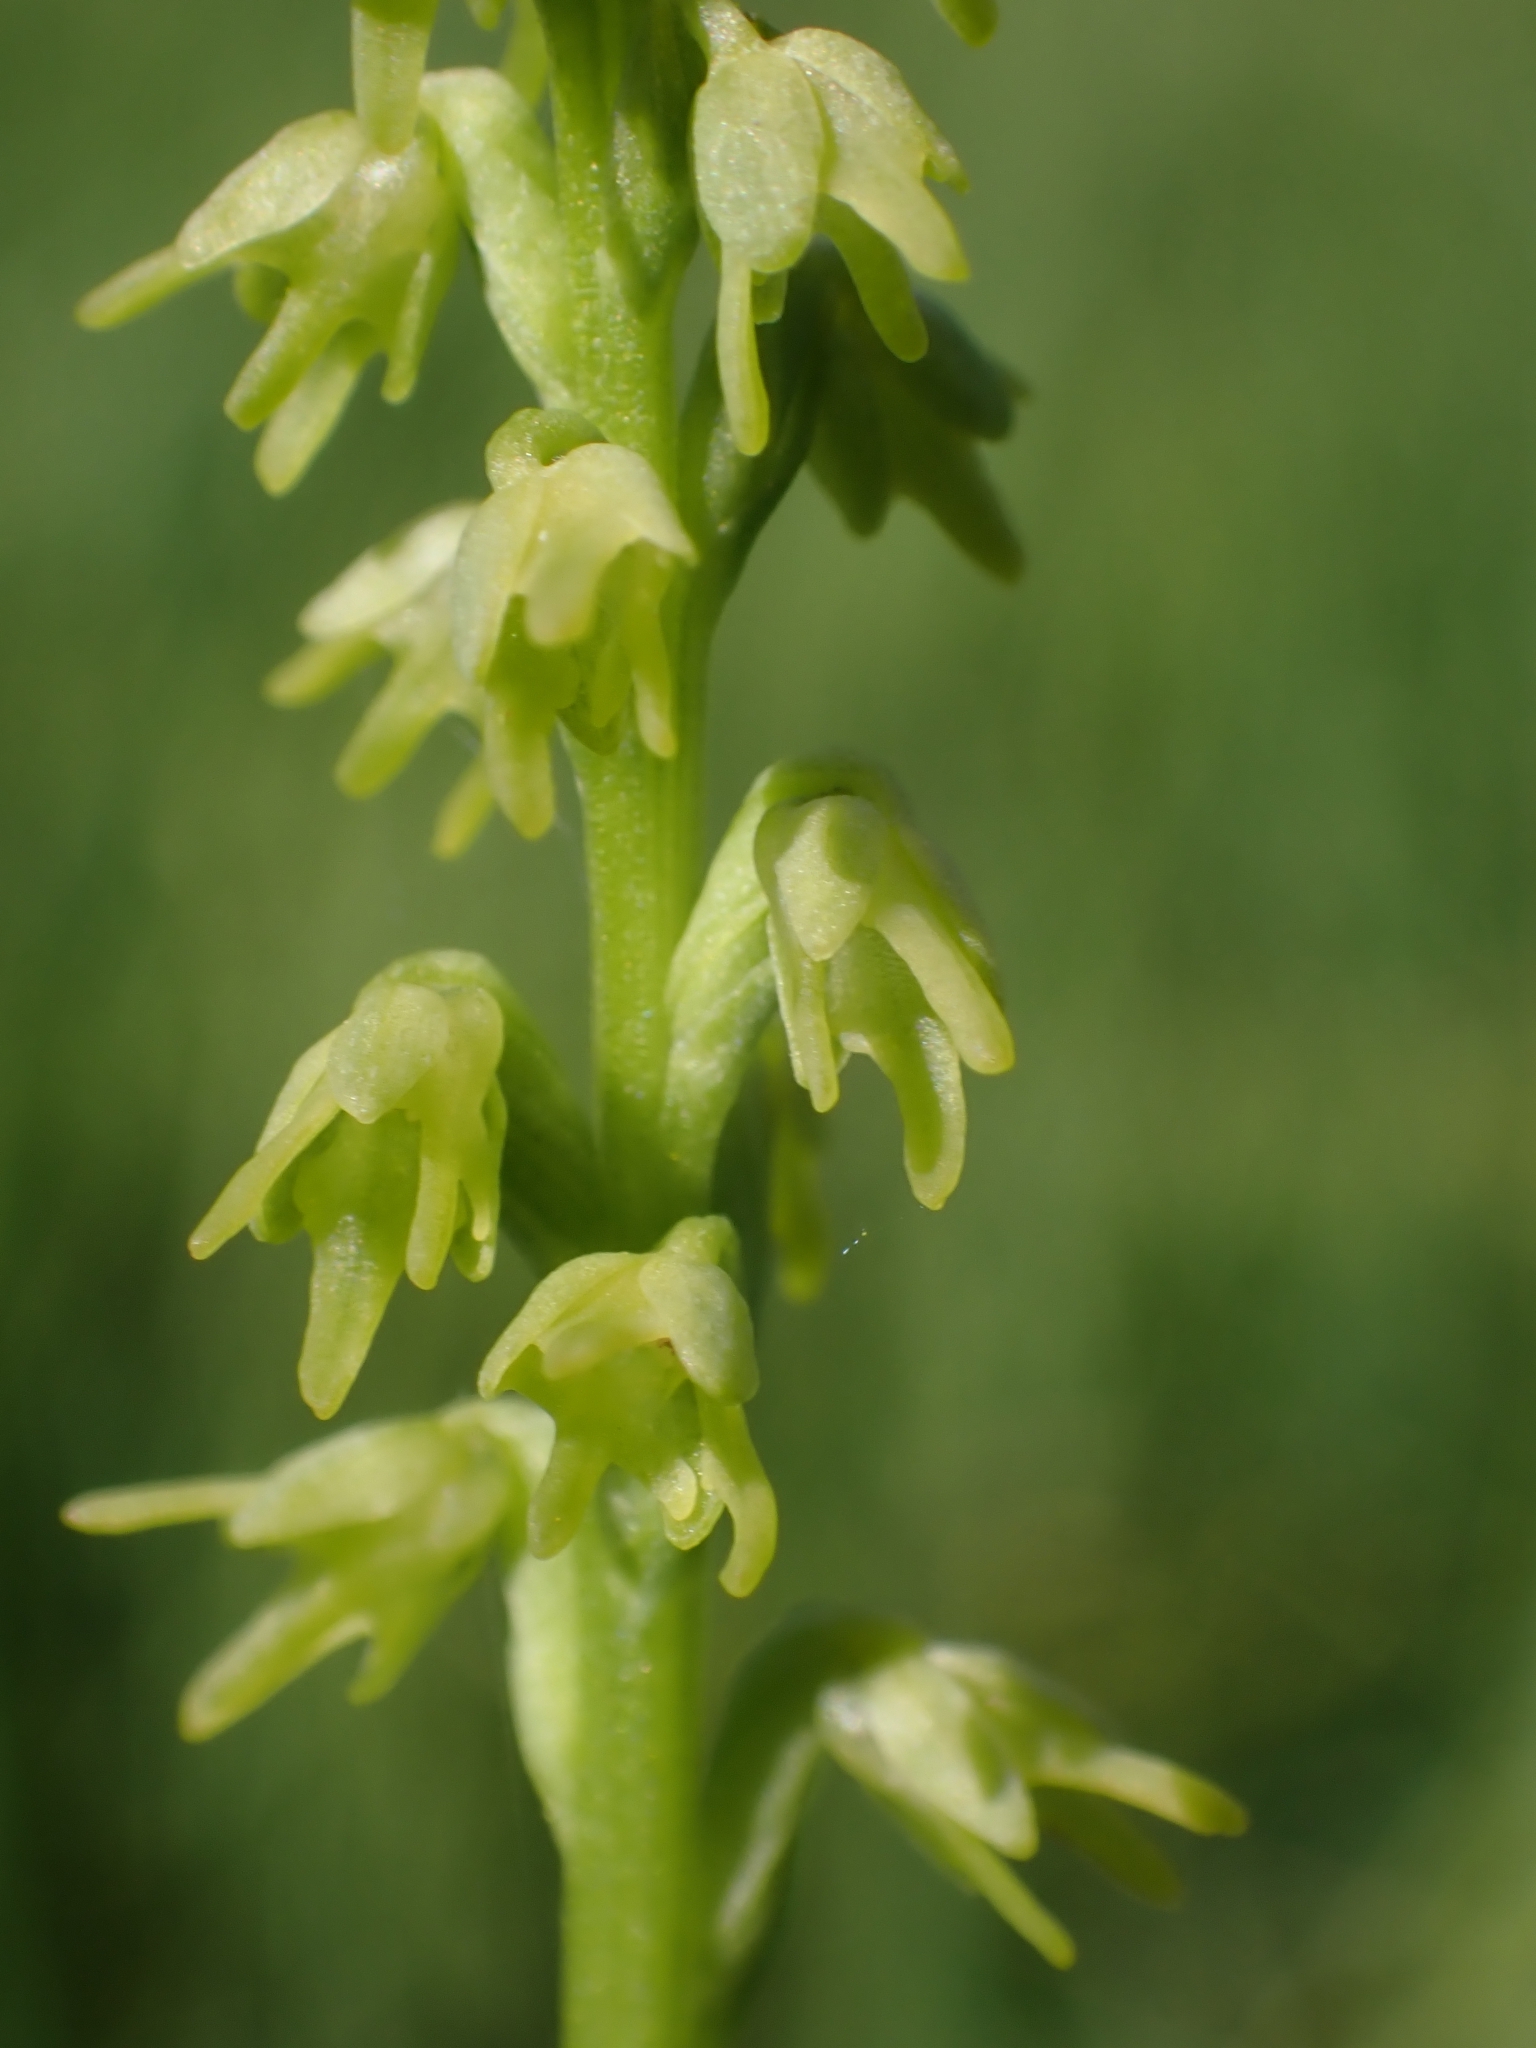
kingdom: Plantae
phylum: Tracheophyta
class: Liliopsida
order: Asparagales
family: Orchidaceae
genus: Herminium
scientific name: Herminium monorchis
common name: Musk orchid
